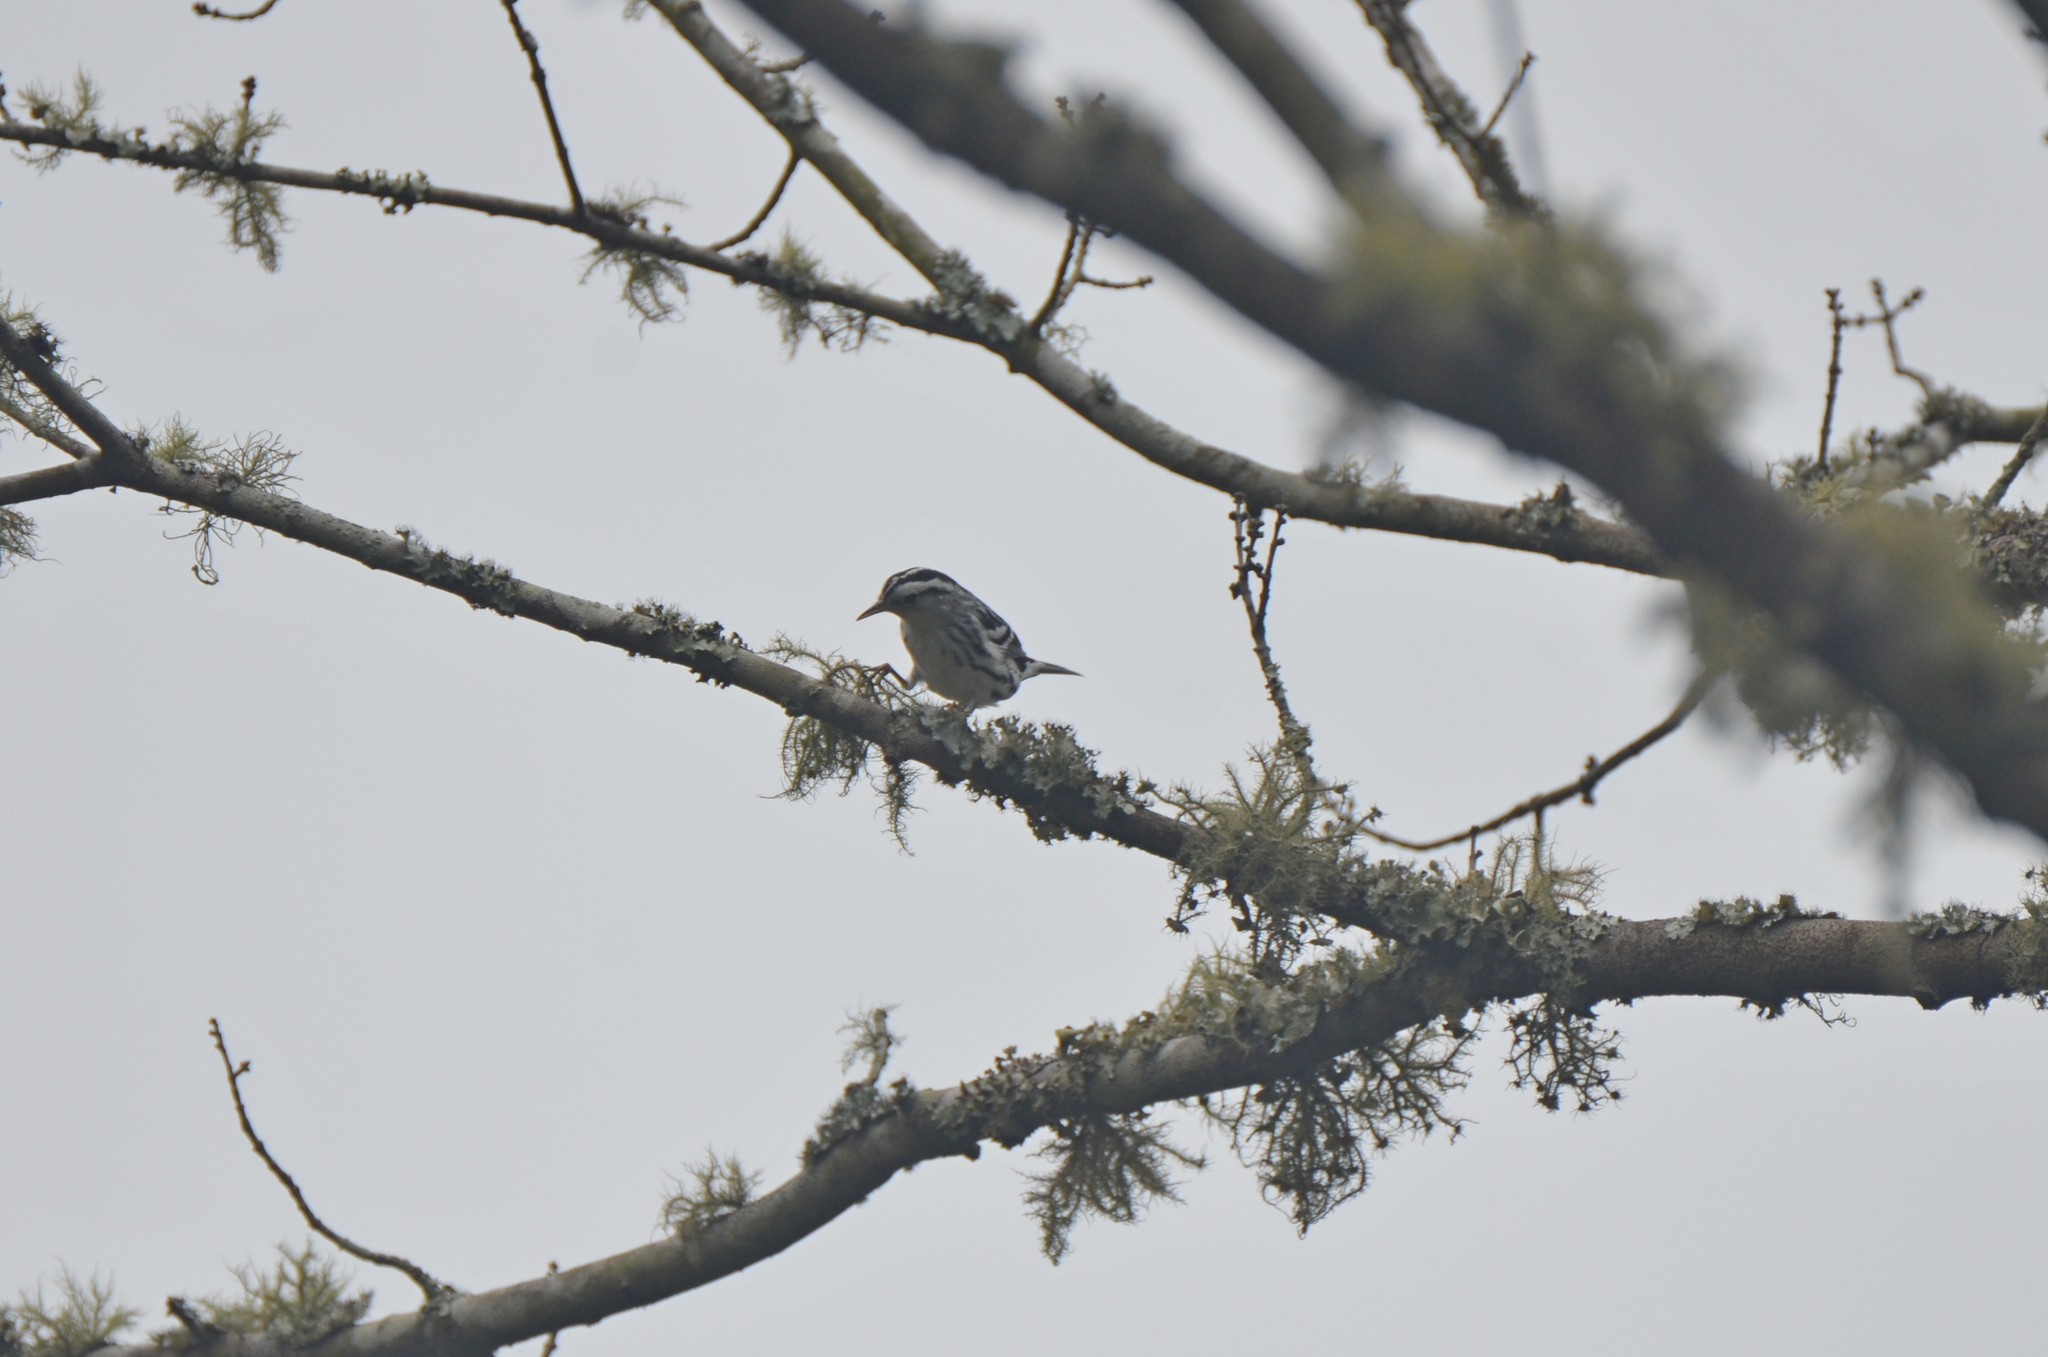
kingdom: Animalia
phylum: Chordata
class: Aves
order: Passeriformes
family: Parulidae
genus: Mniotilta
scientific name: Mniotilta varia
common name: Black-and-white warbler
